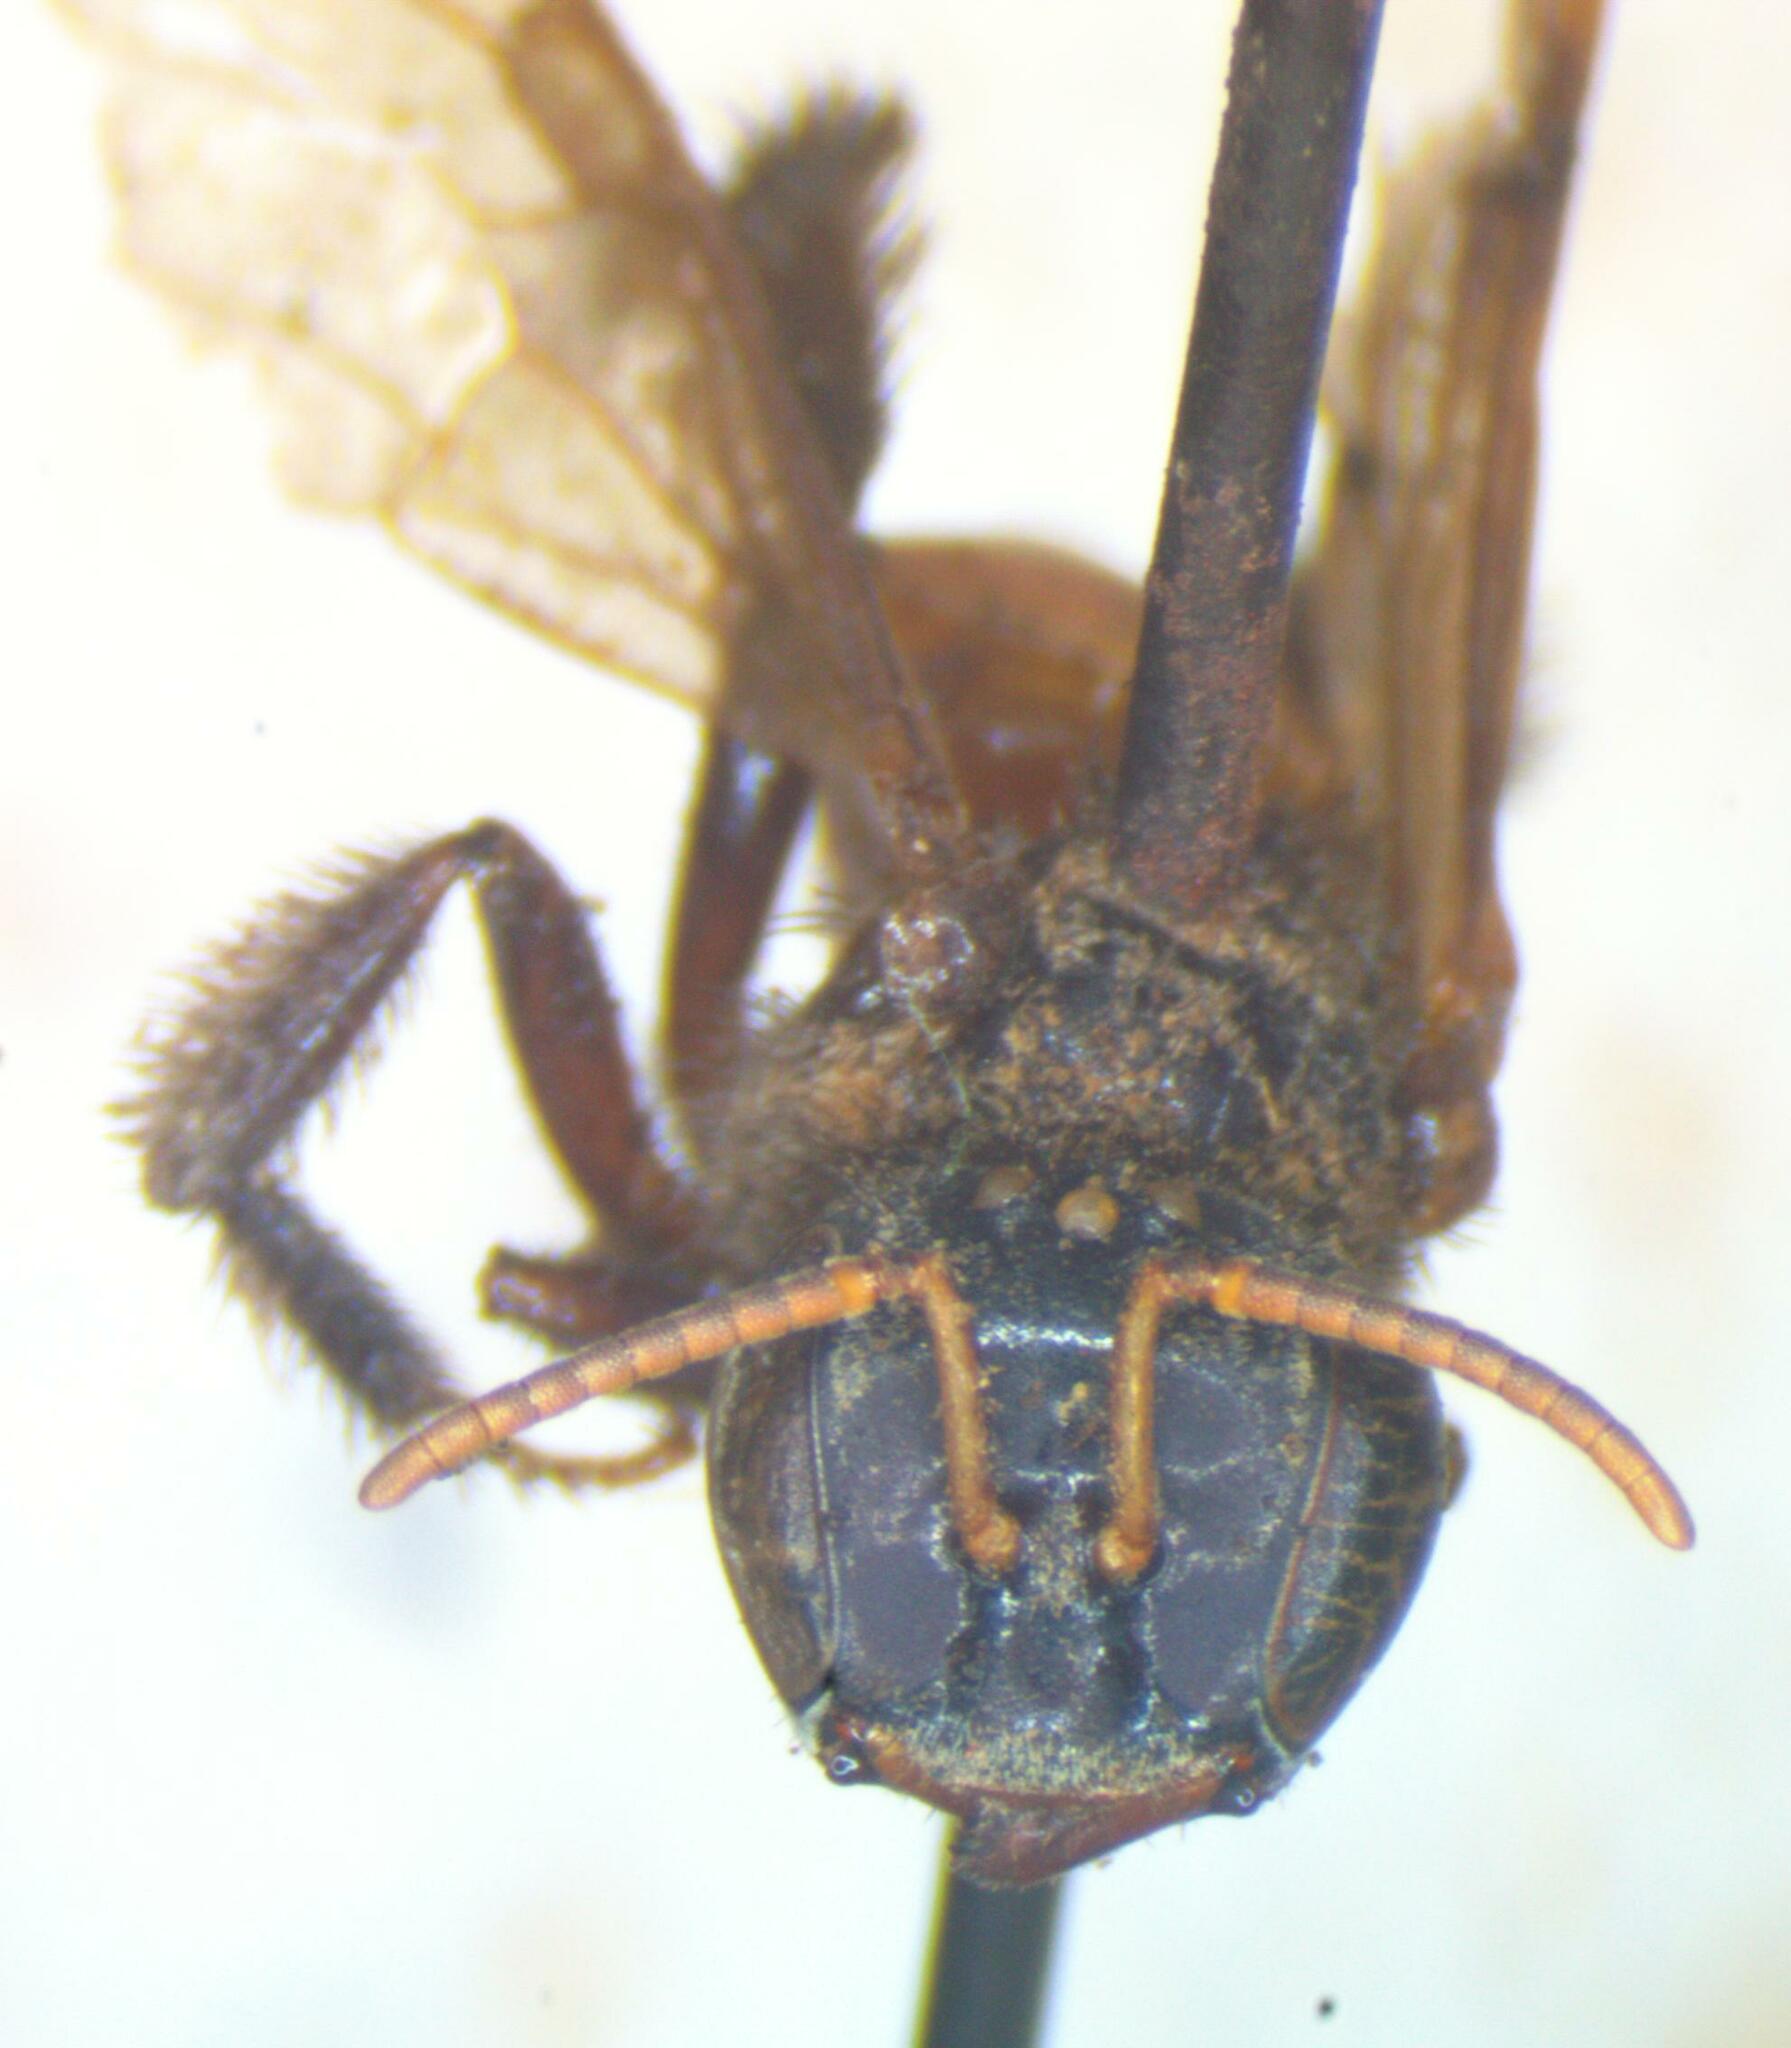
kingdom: Animalia
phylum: Arthropoda
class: Insecta
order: Hymenoptera
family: Apidae
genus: Trigona
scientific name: Trigona fulviventris
